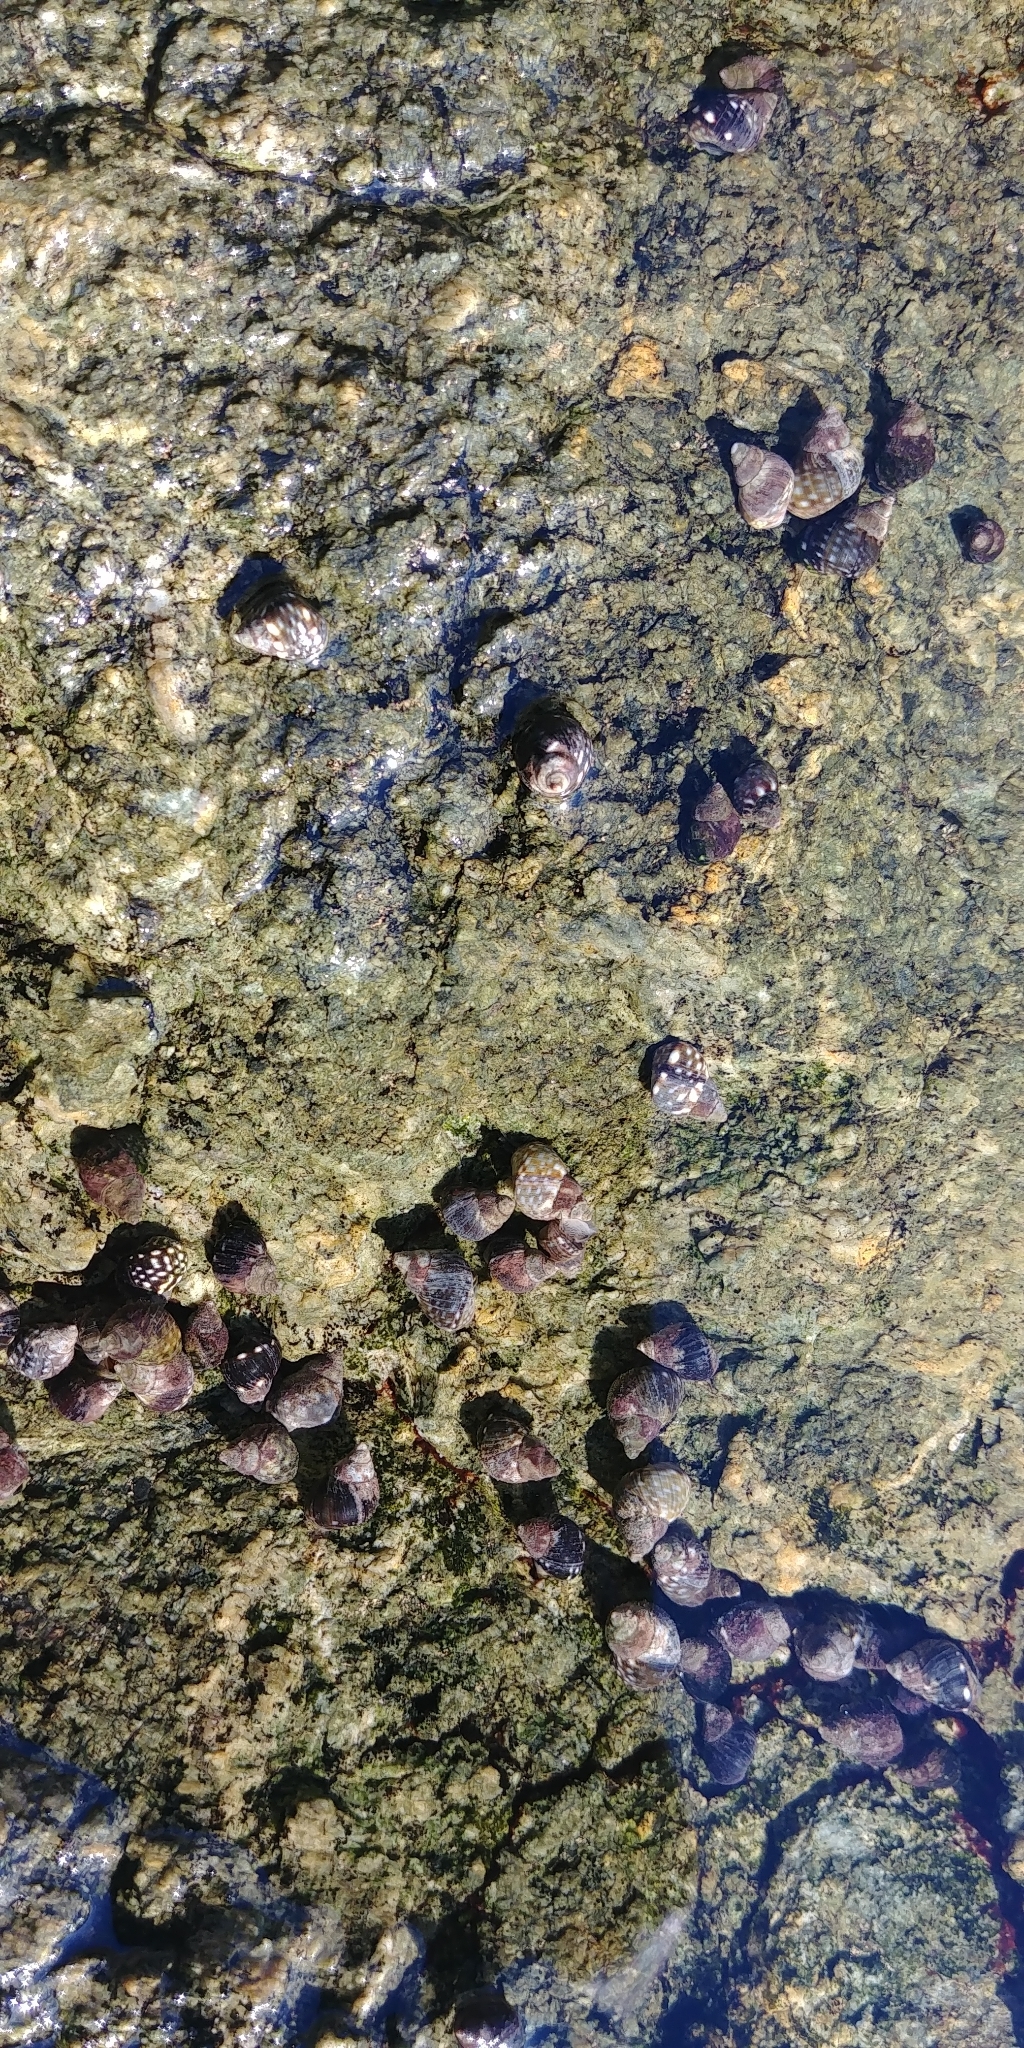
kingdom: Animalia
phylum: Mollusca
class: Gastropoda
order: Littorinimorpha
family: Littorinidae
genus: Littorina
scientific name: Littorina scutulata
